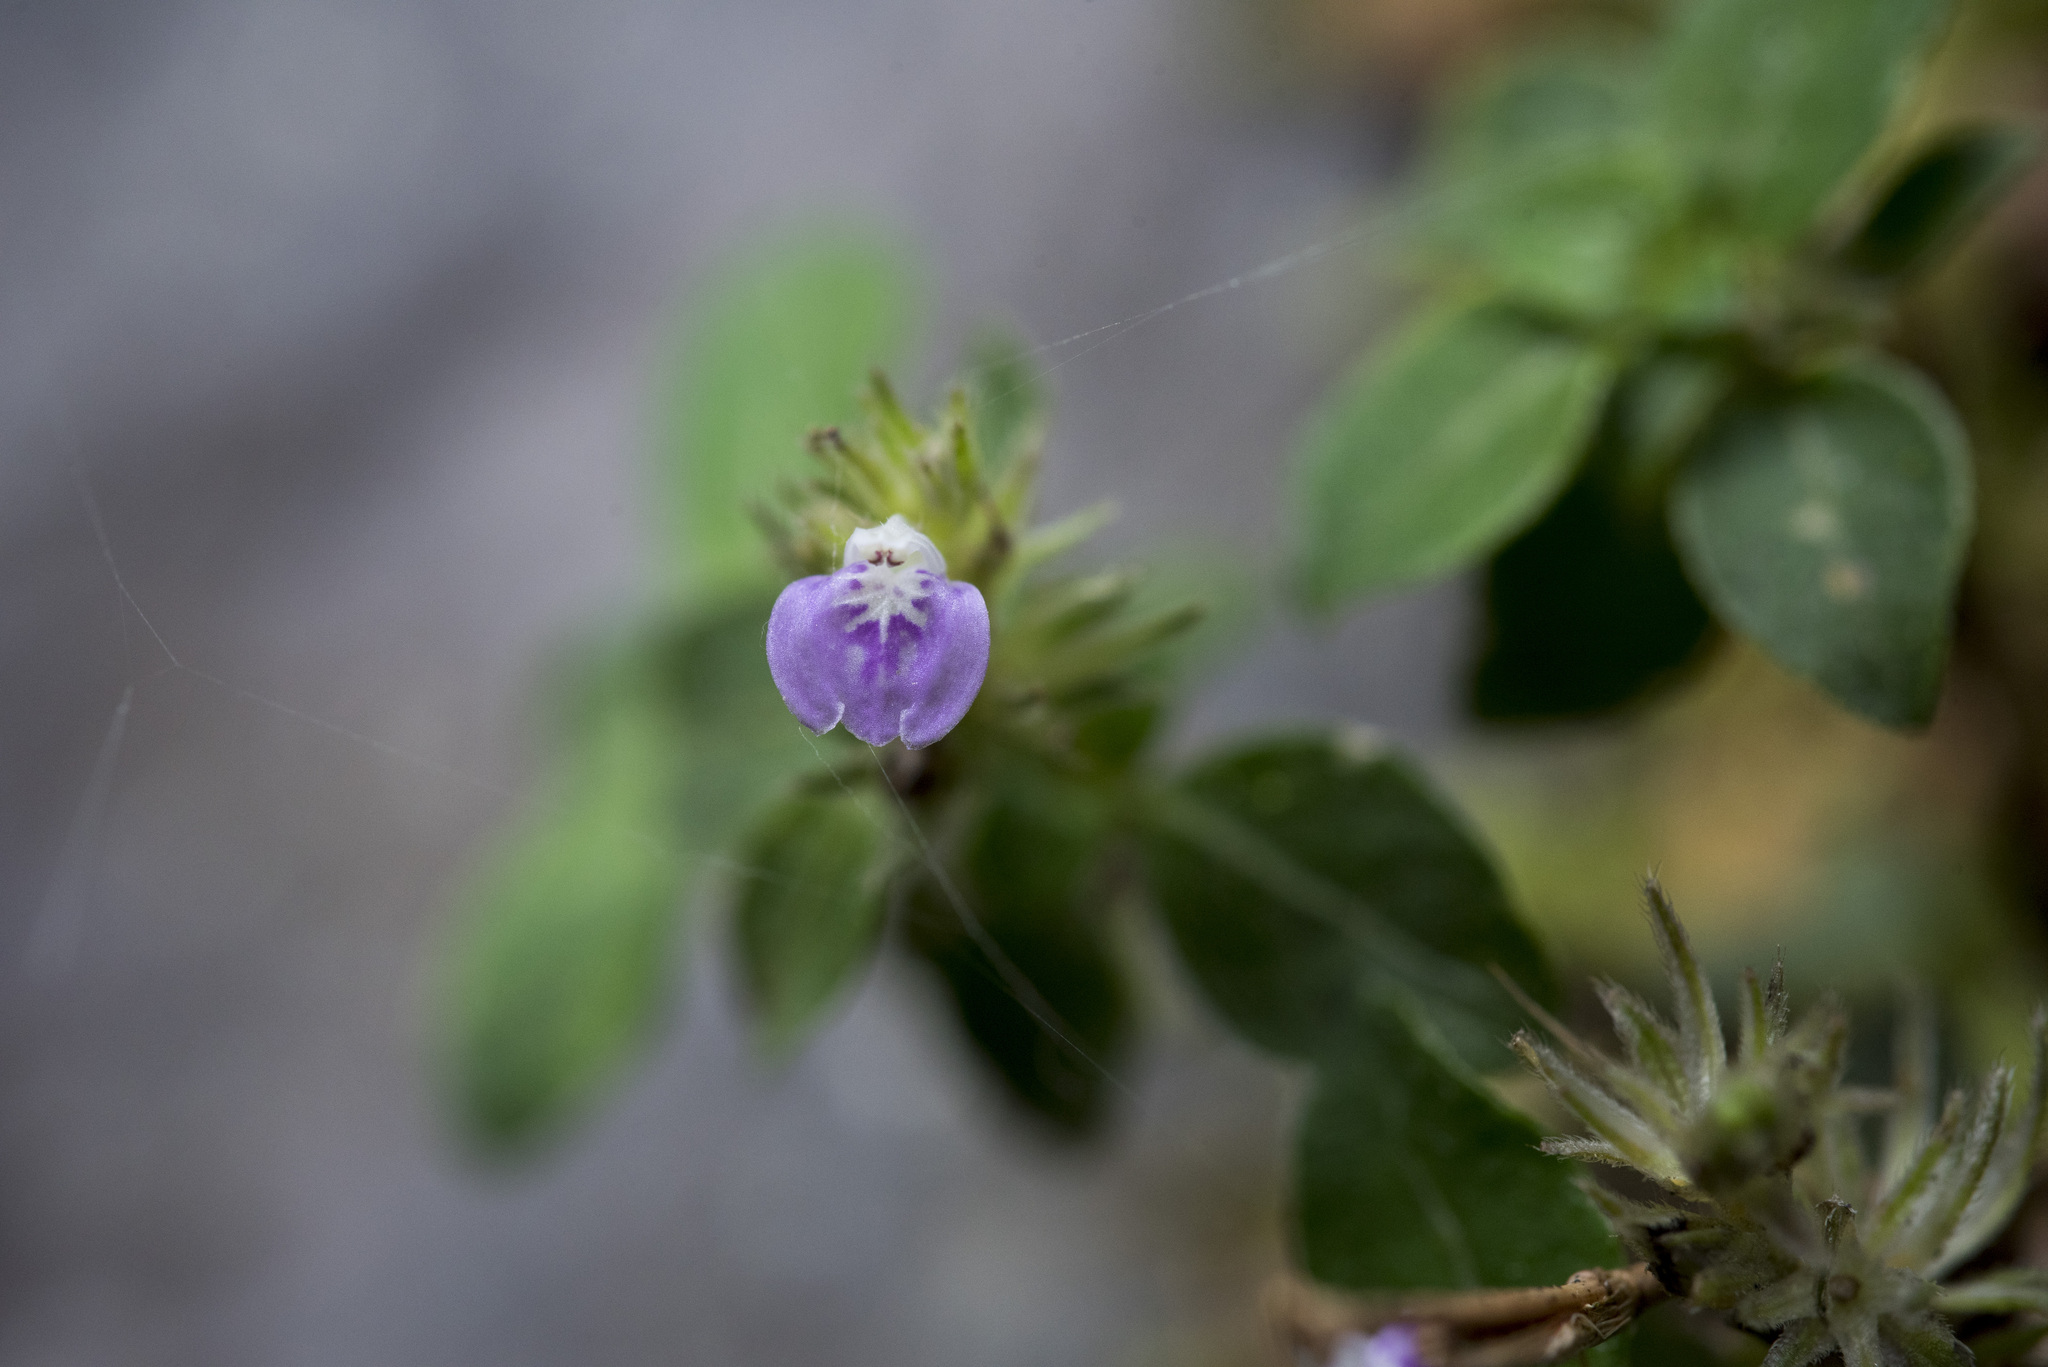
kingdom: Plantae
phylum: Tracheophyta
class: Magnoliopsida
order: Lamiales
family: Acanthaceae
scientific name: Acanthaceae
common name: Acanthaceae
